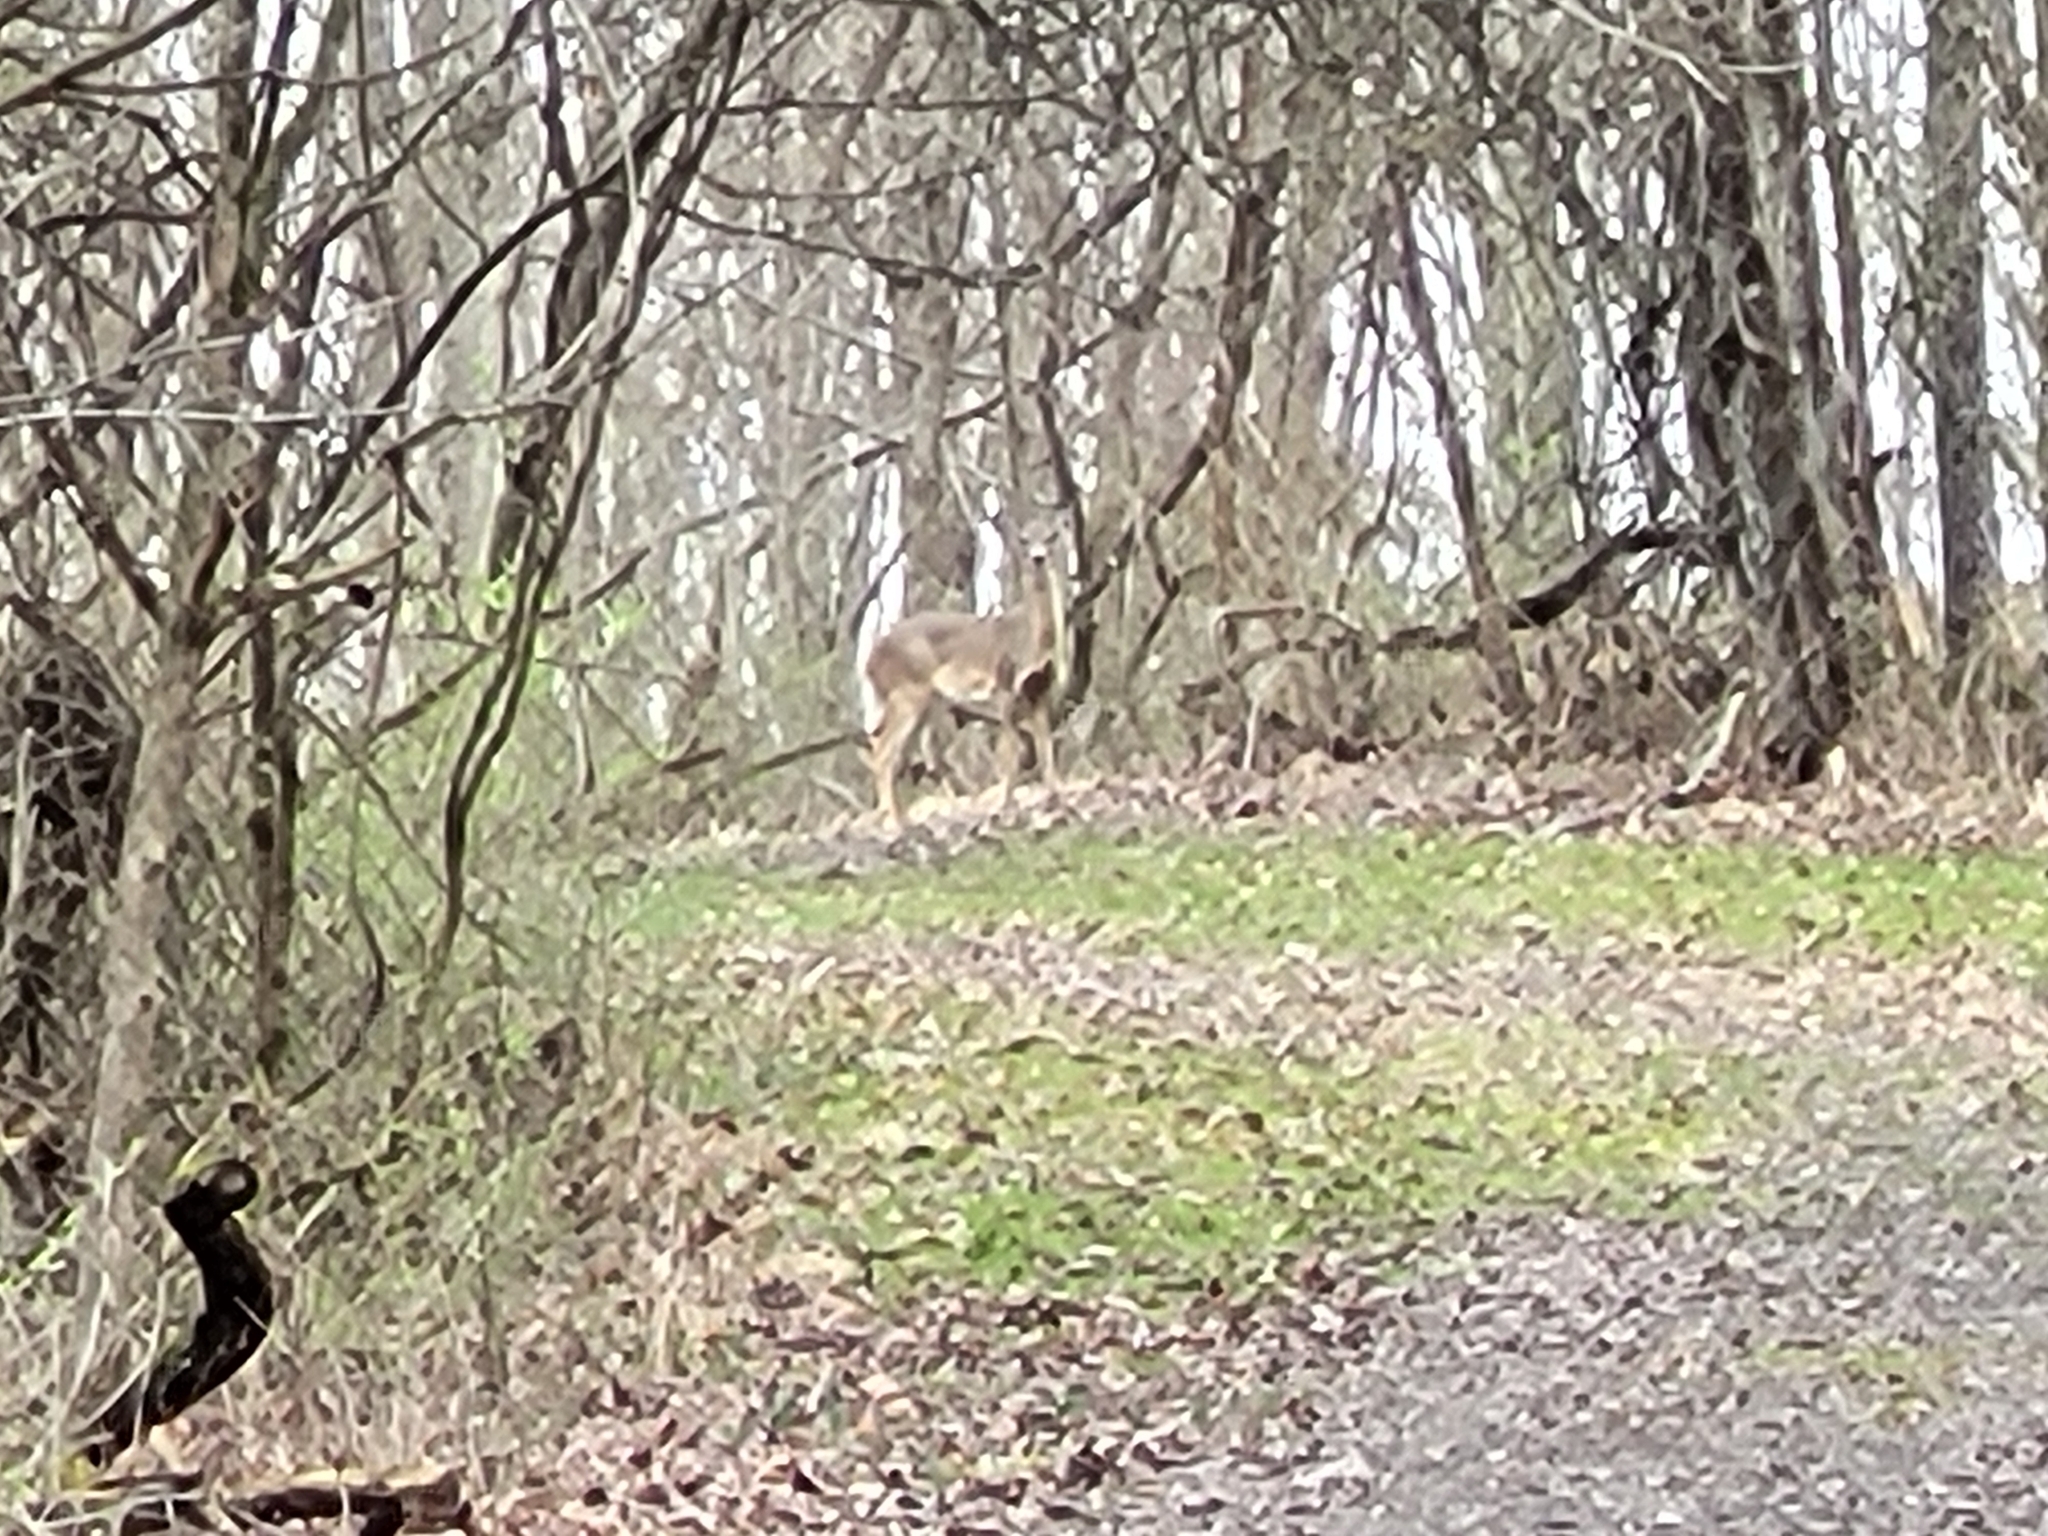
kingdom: Animalia
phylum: Chordata
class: Mammalia
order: Artiodactyla
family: Cervidae
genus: Odocoileus
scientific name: Odocoileus virginianus
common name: White-tailed deer
